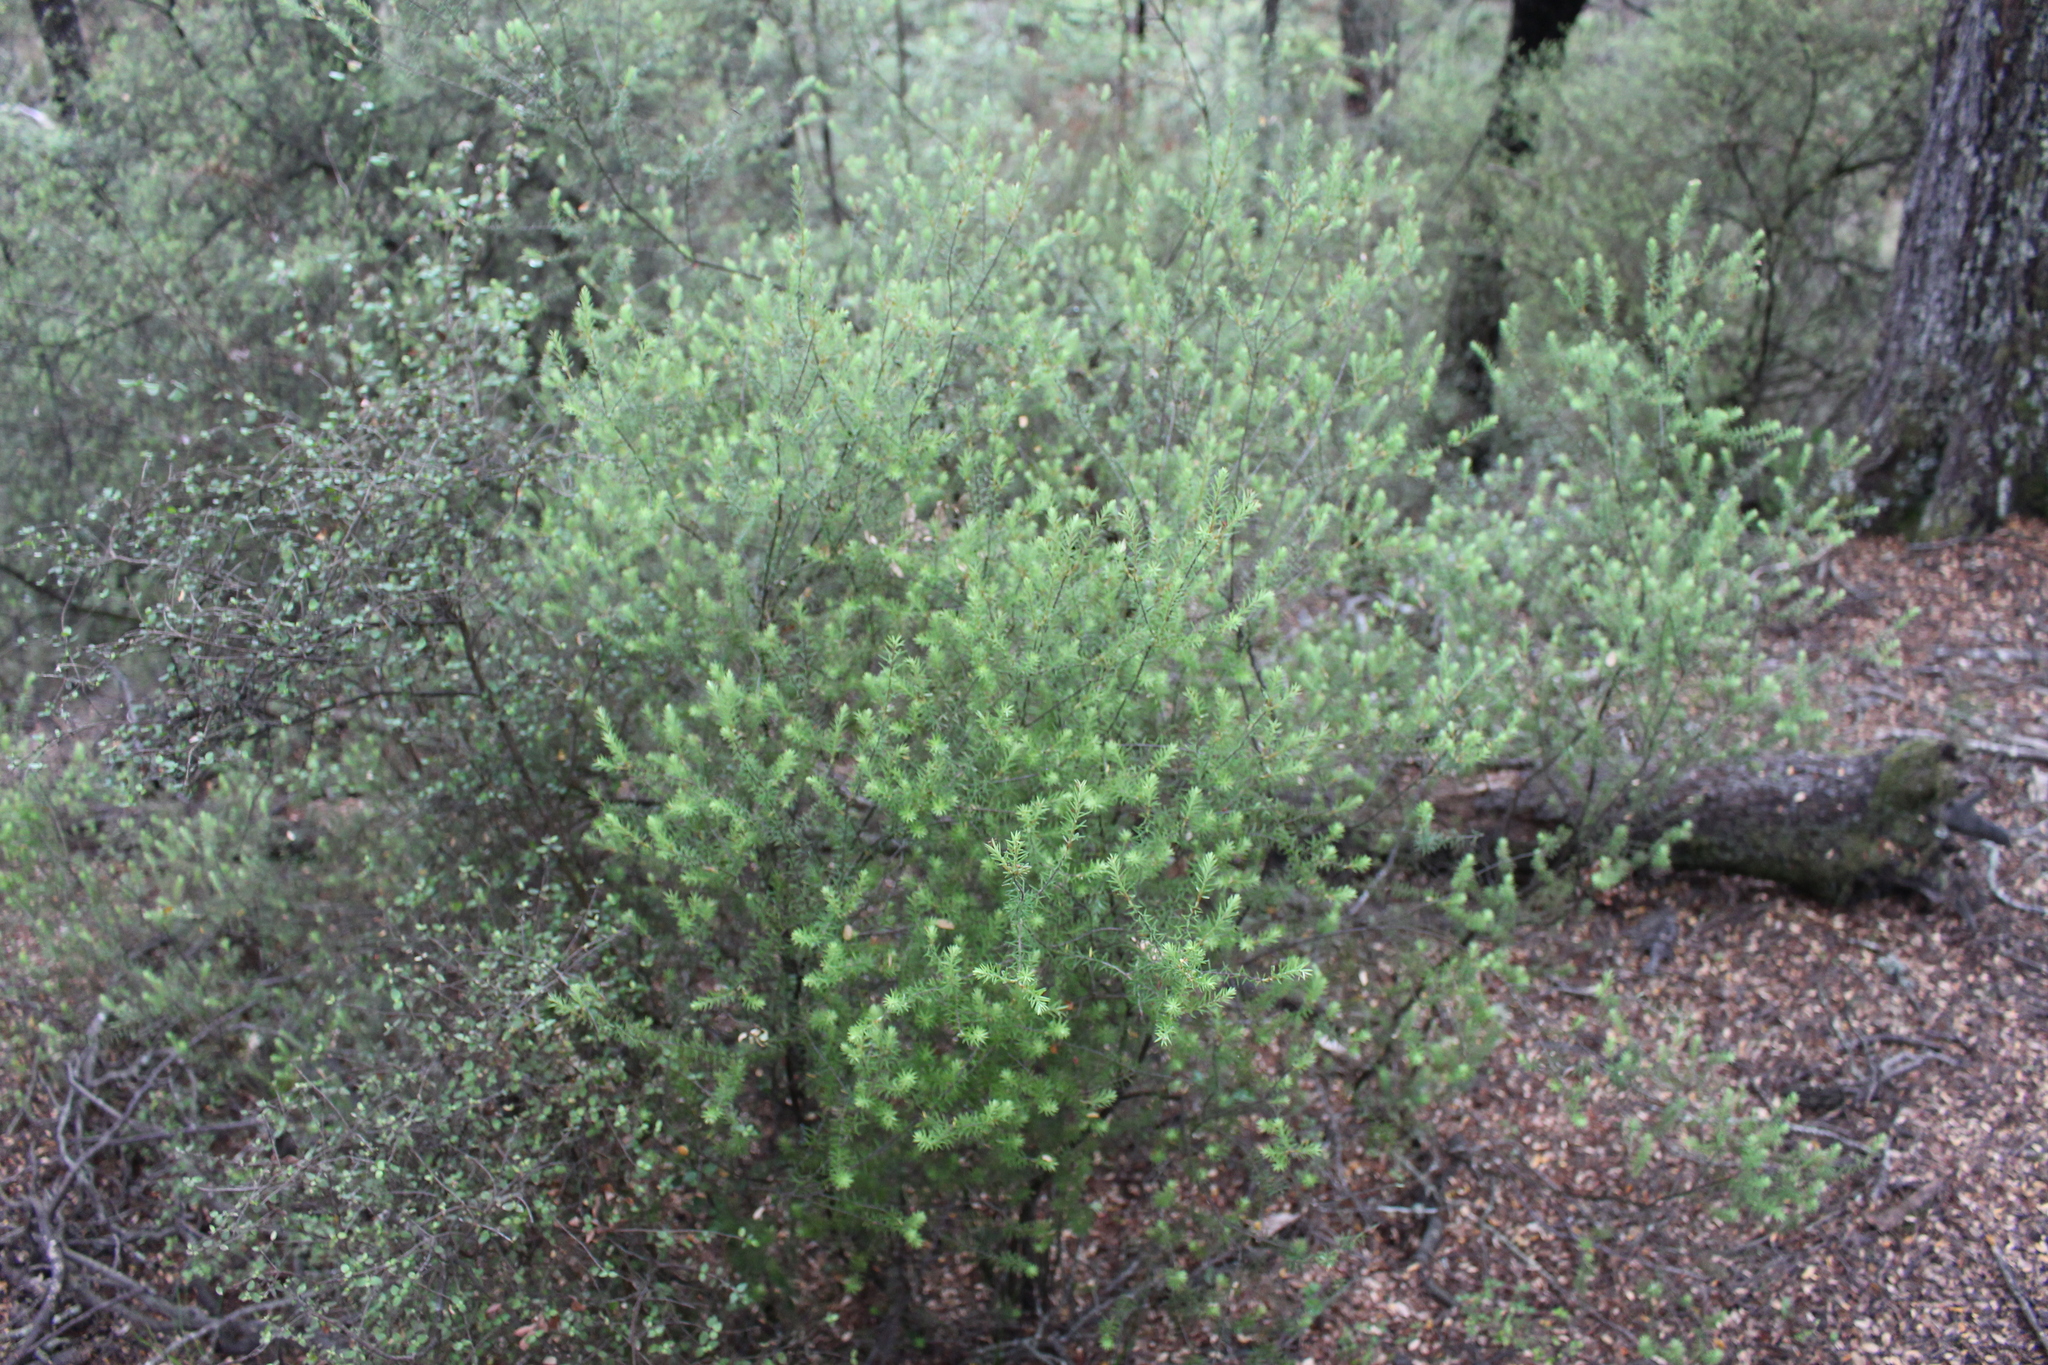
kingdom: Plantae
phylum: Tracheophyta
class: Magnoliopsida
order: Ericales
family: Ericaceae
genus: Leptecophylla
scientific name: Leptecophylla juniperina
